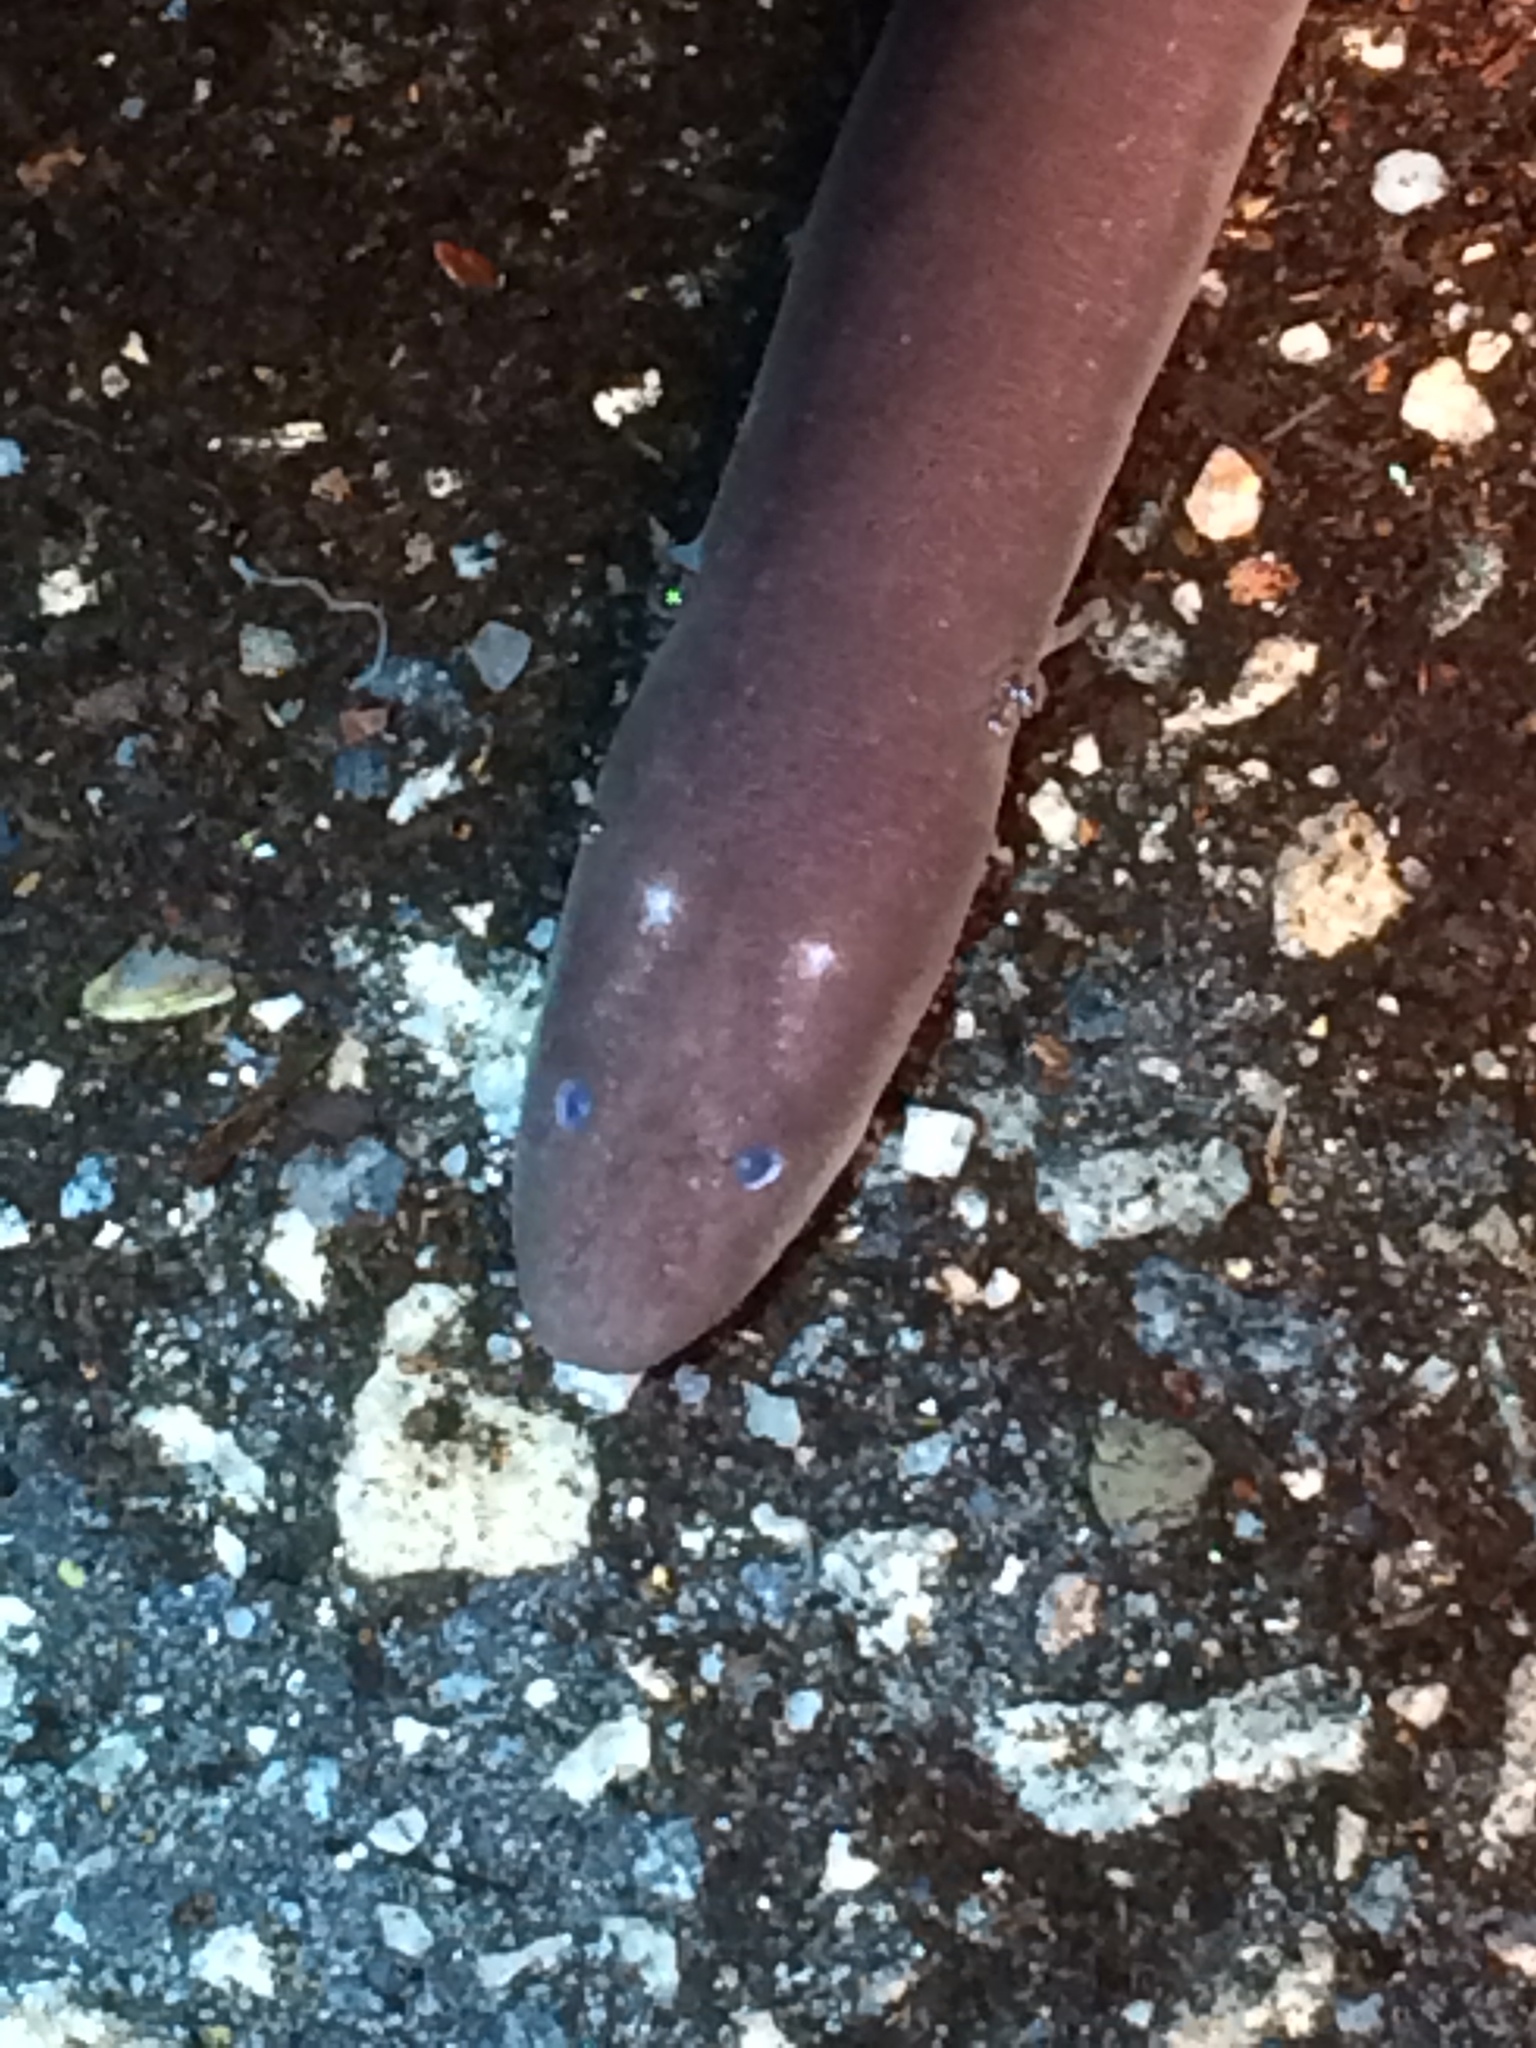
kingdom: Animalia
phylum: Chordata
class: Amphibia
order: Caudata
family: Amphiumidae
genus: Amphiuma
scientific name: Amphiuma means
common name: Two-toed amphiuma
